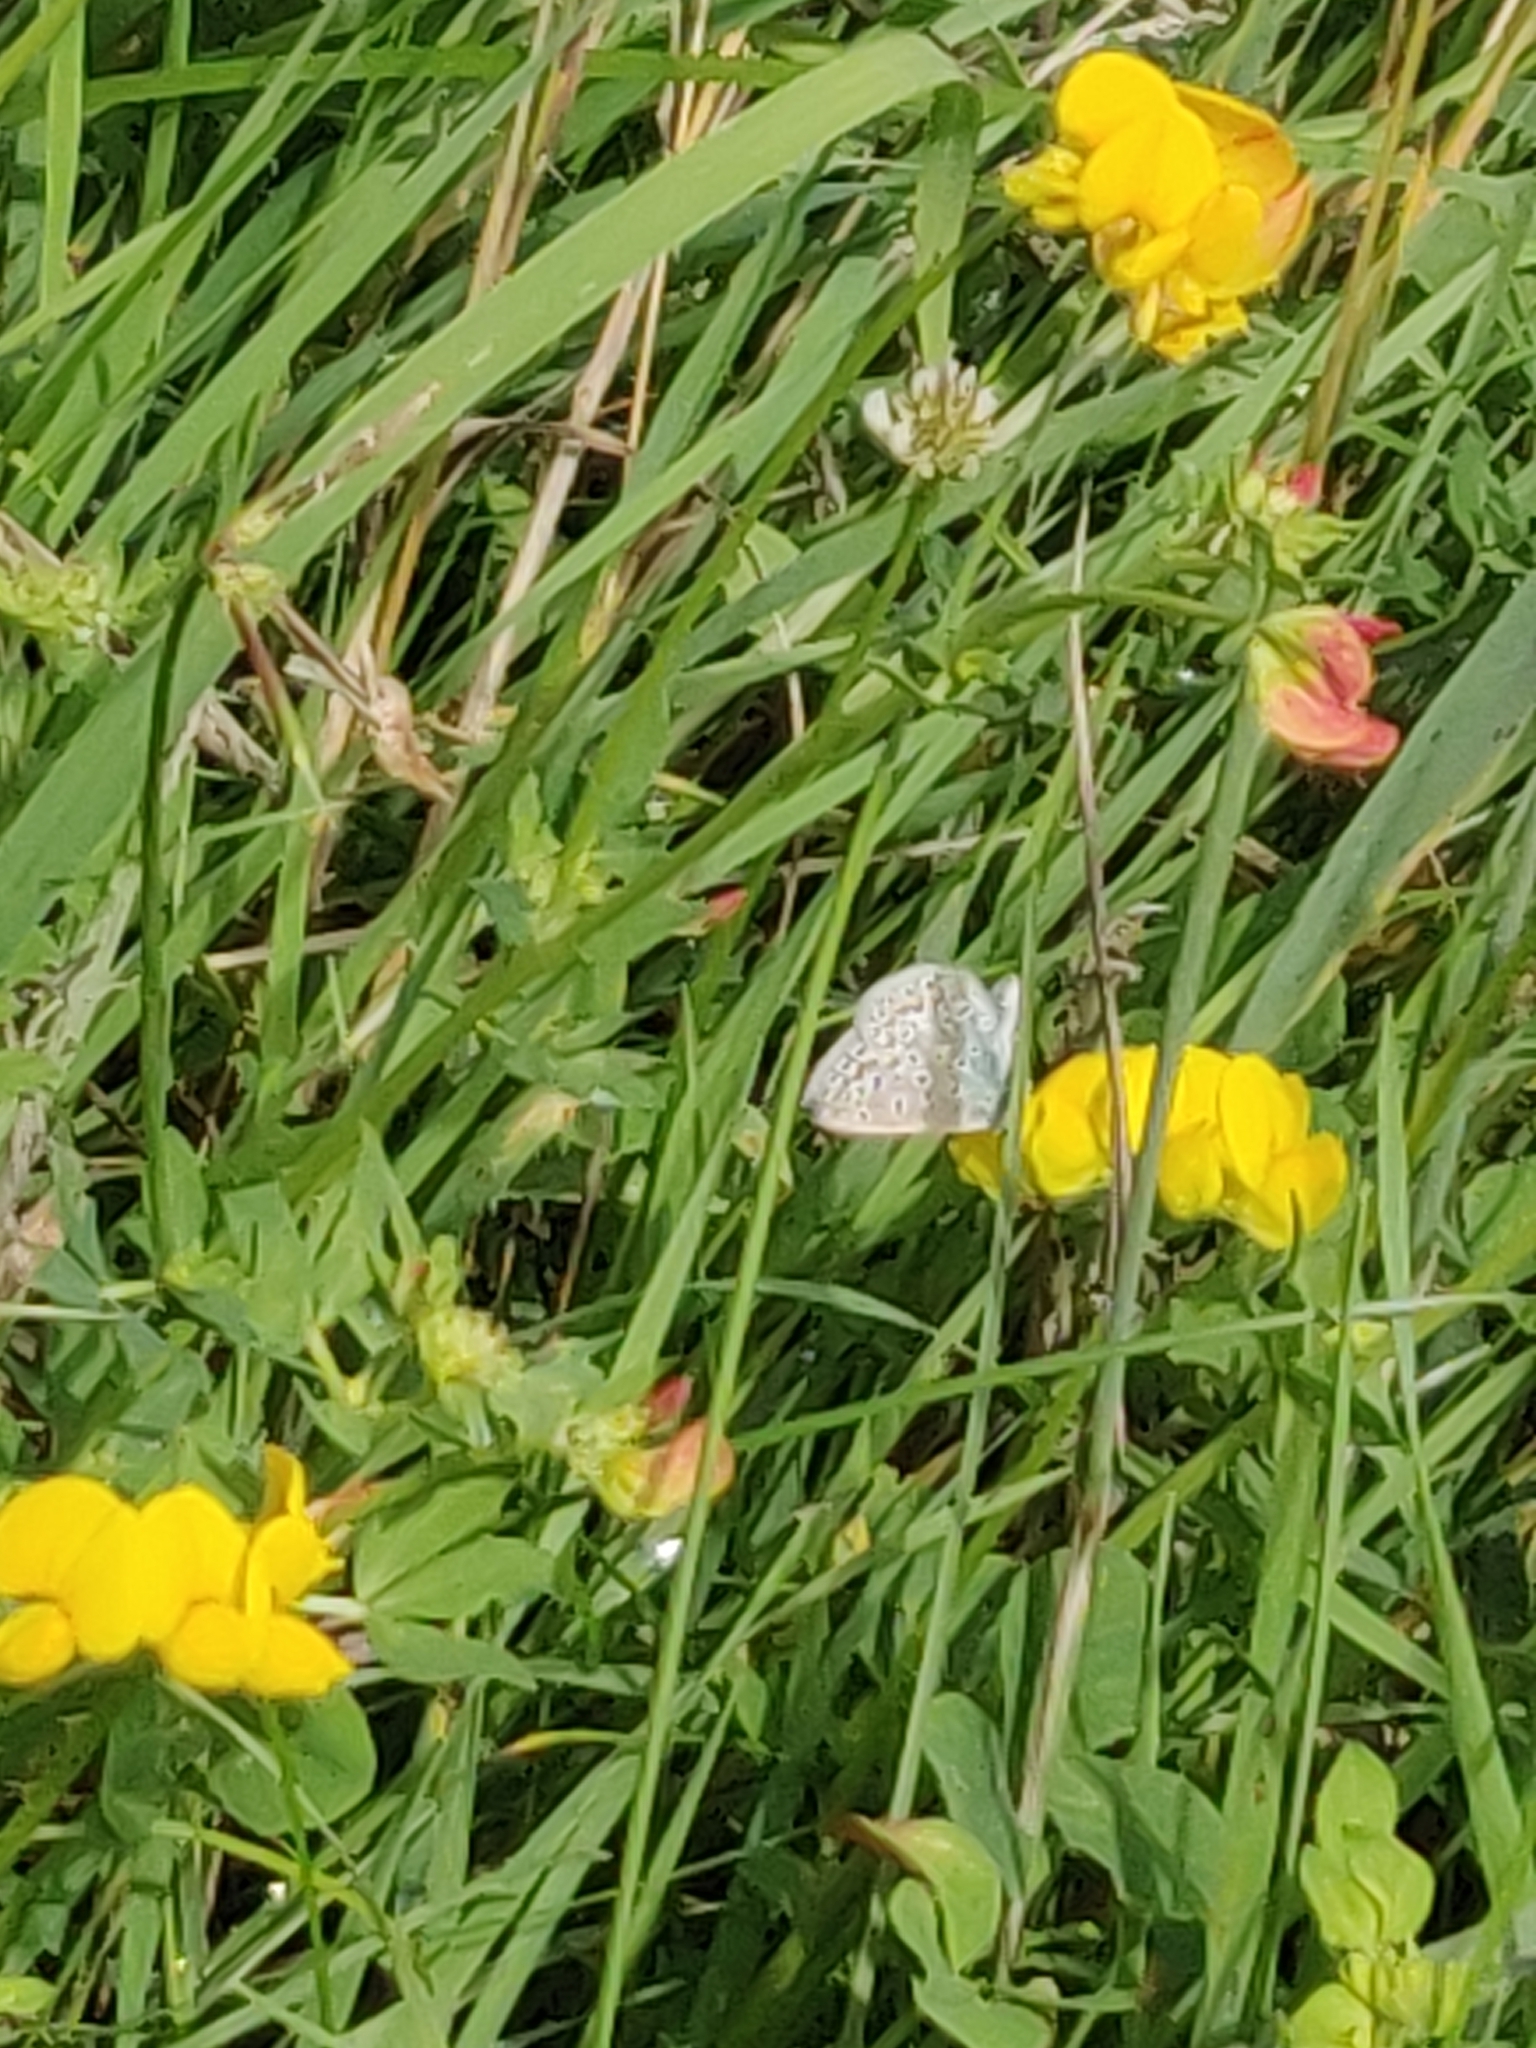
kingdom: Animalia
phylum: Arthropoda
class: Insecta
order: Lepidoptera
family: Lycaenidae
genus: Polyommatus
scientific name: Polyommatus icarus
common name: Common blue
